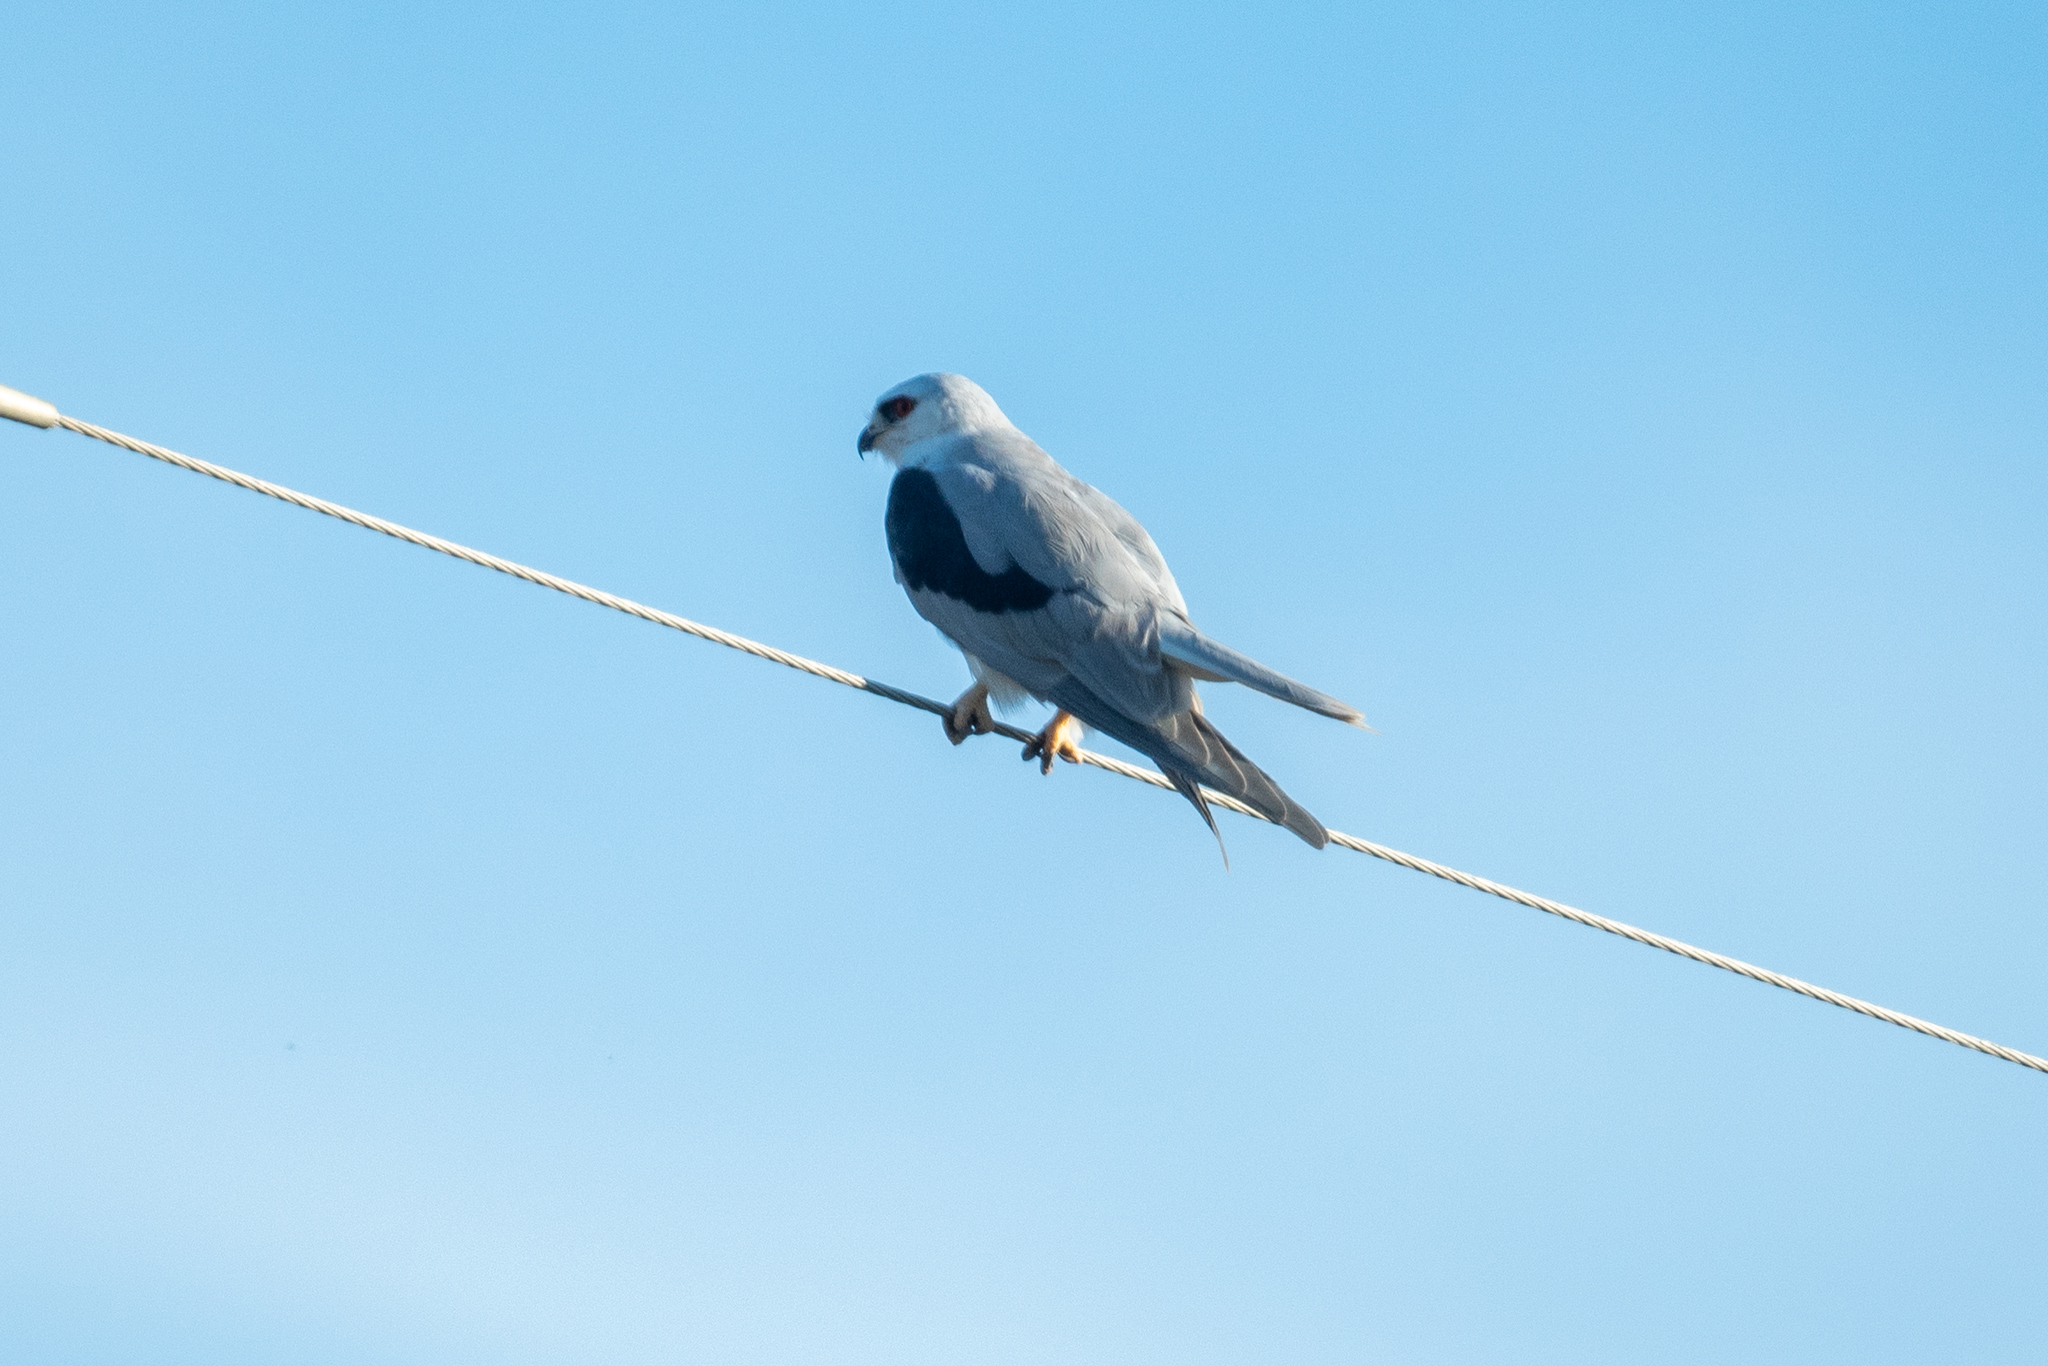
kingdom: Animalia
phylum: Chordata
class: Aves
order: Accipitriformes
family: Accipitridae
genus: Elanus
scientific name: Elanus leucurus
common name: White-tailed kite
